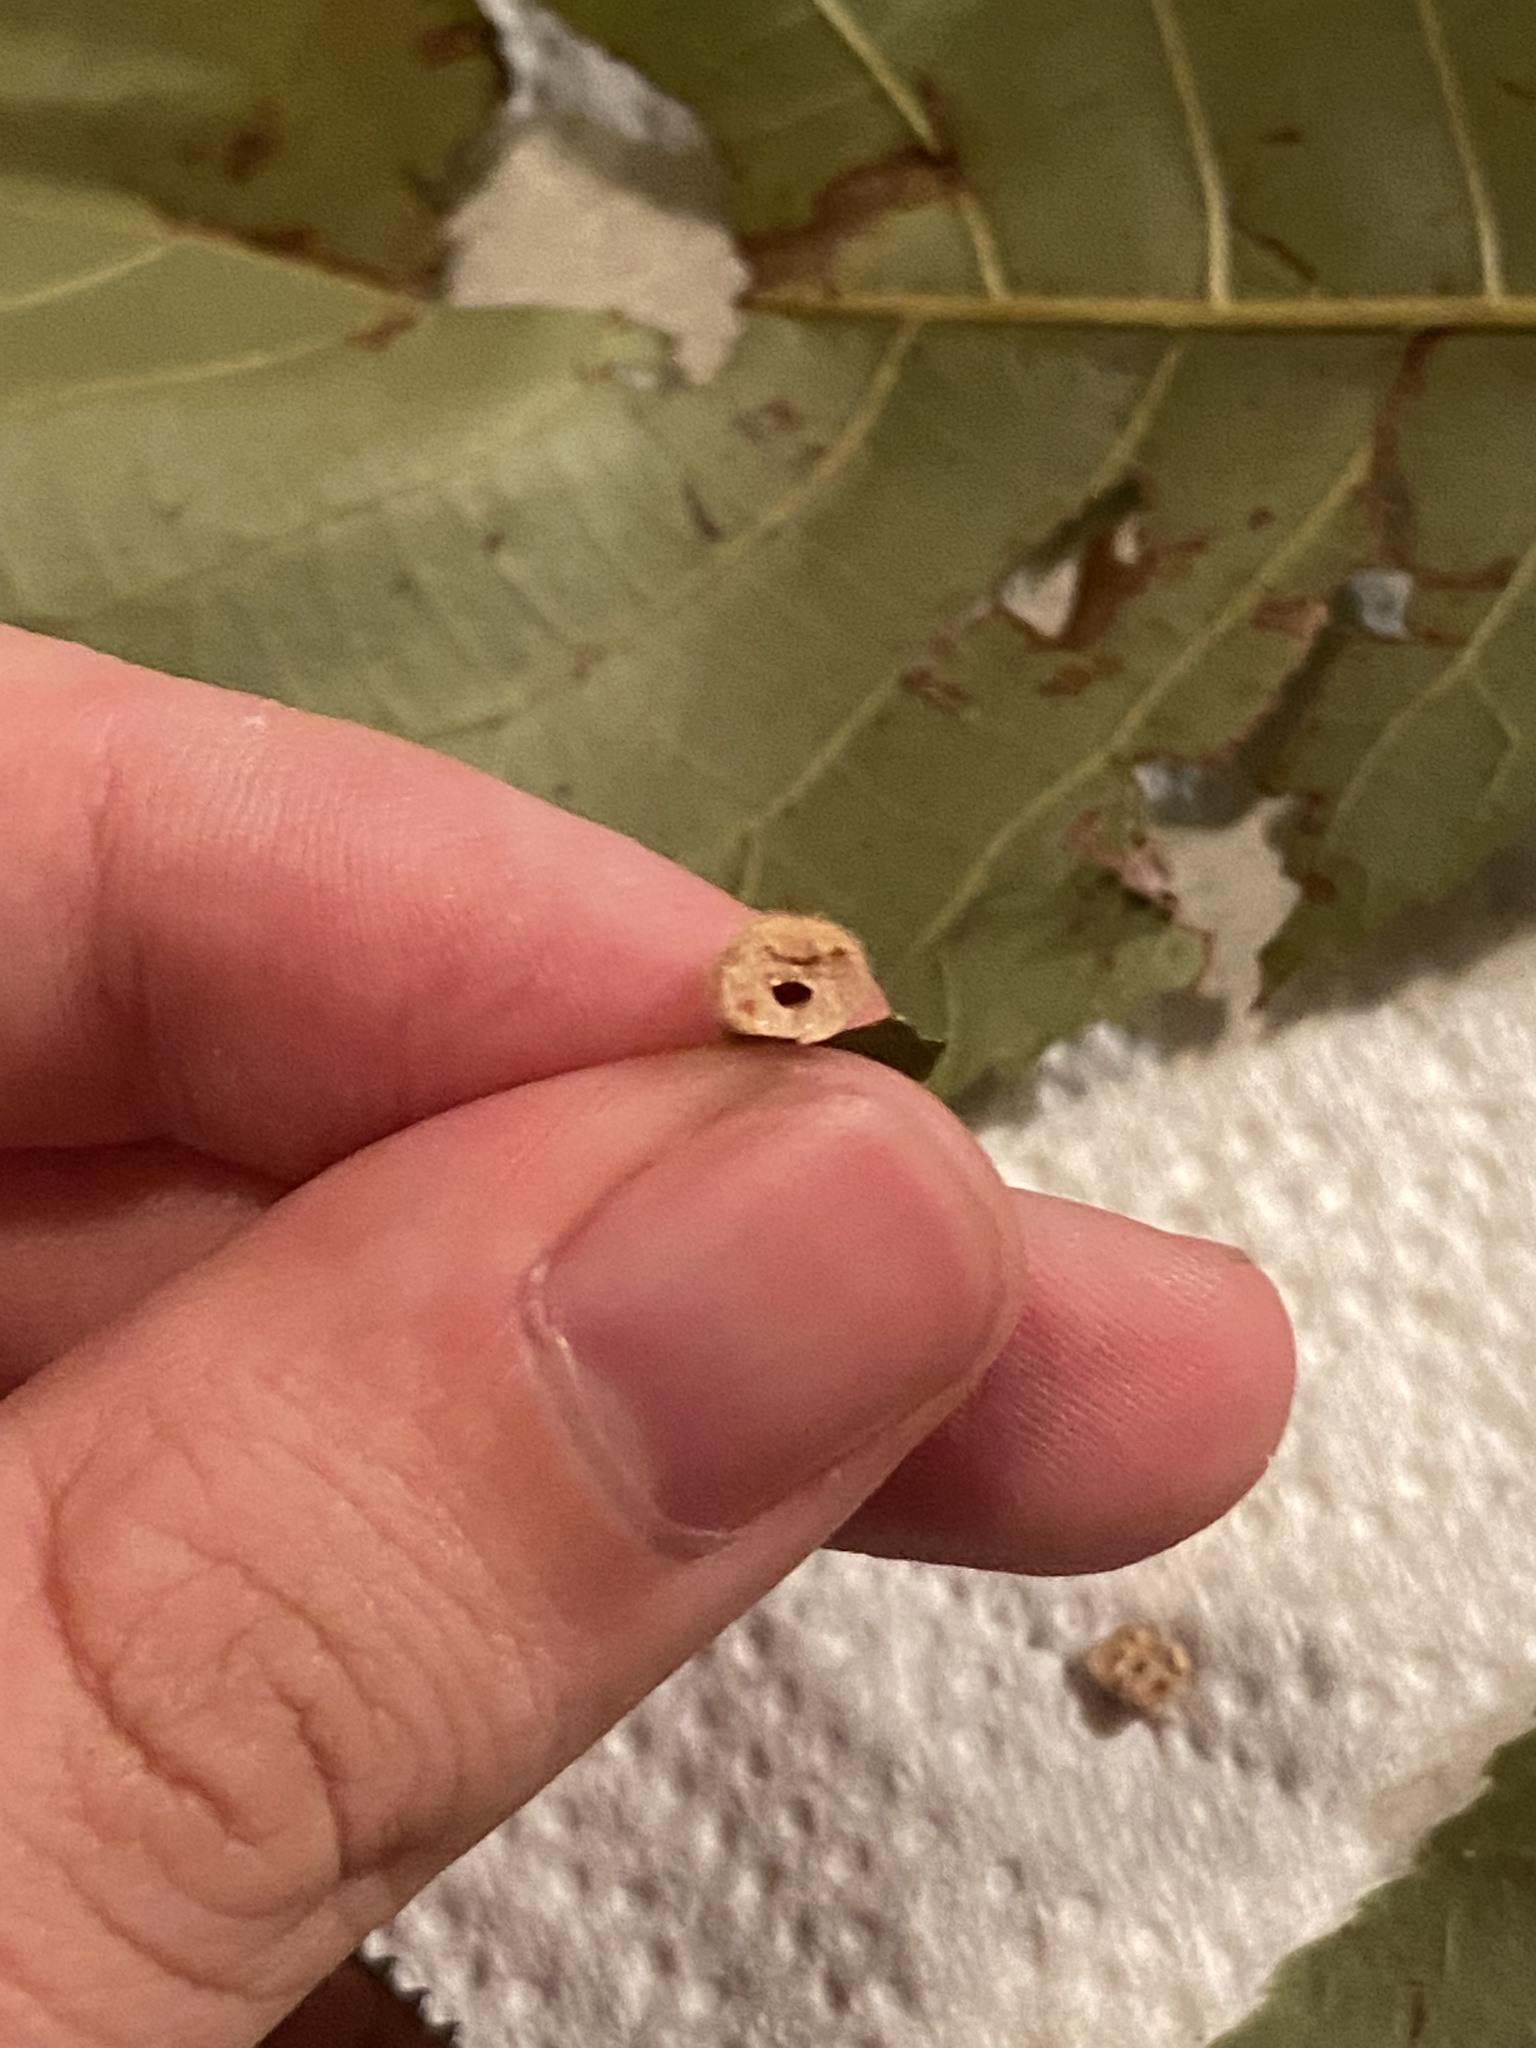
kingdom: Animalia
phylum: Arthropoda
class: Insecta
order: Diptera
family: Cecidomyiidae
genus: Caryomyia
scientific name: Caryomyia spherica
